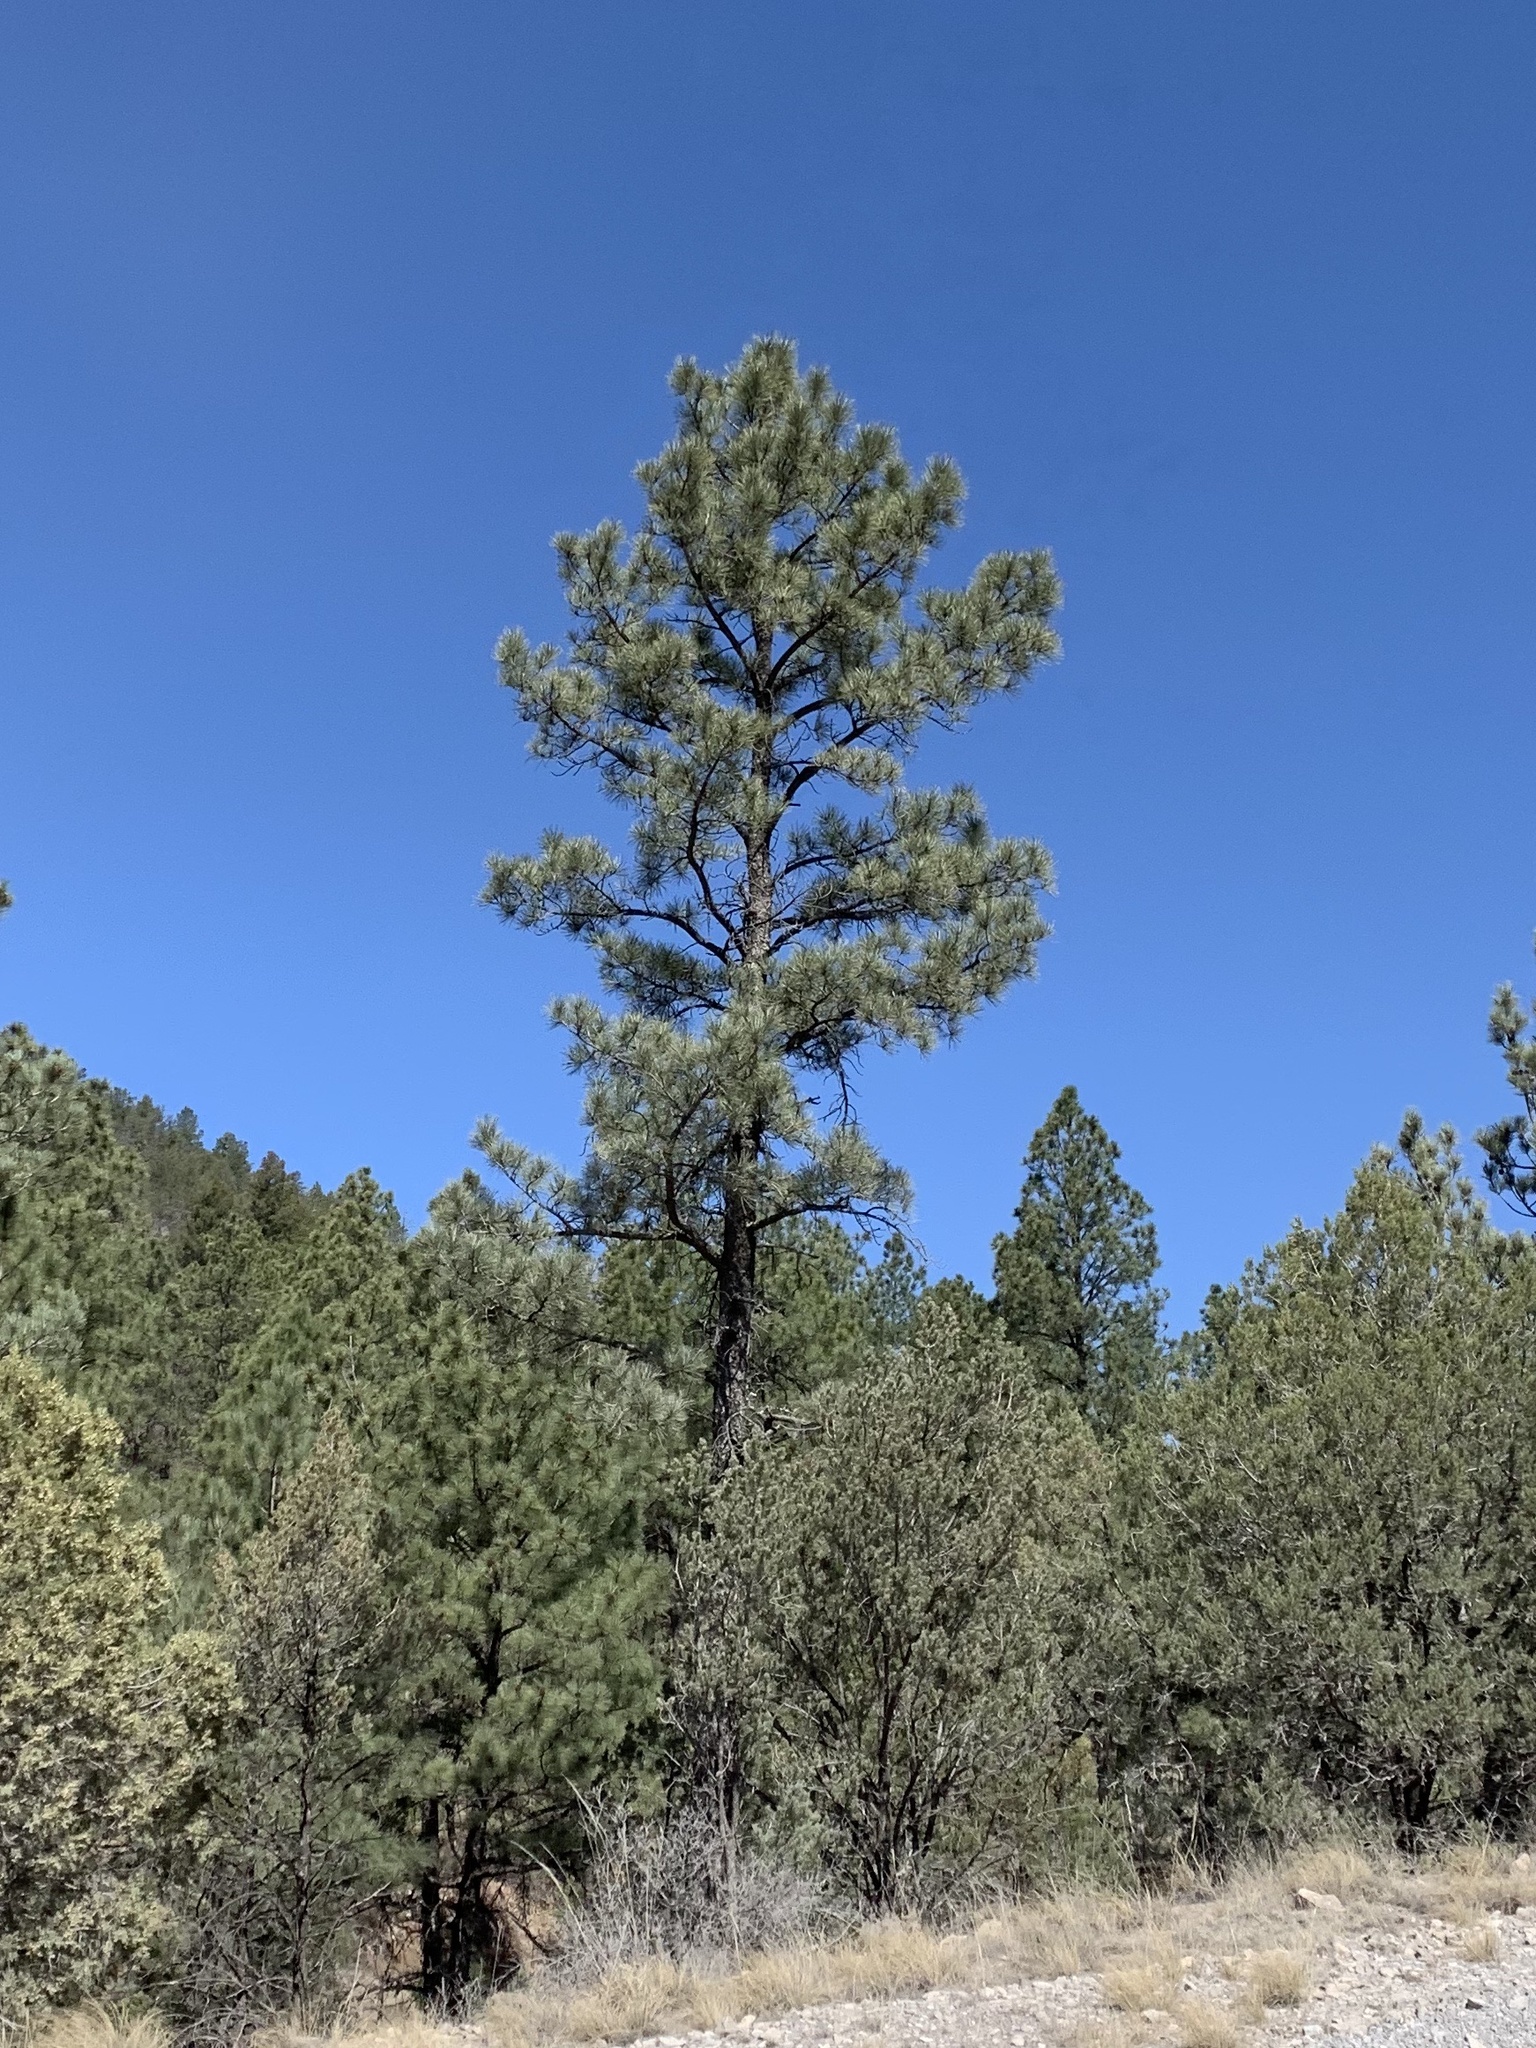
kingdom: Plantae
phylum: Tracheophyta
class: Pinopsida
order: Pinales
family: Pinaceae
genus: Pinus
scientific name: Pinus ponderosa
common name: Western yellow-pine
